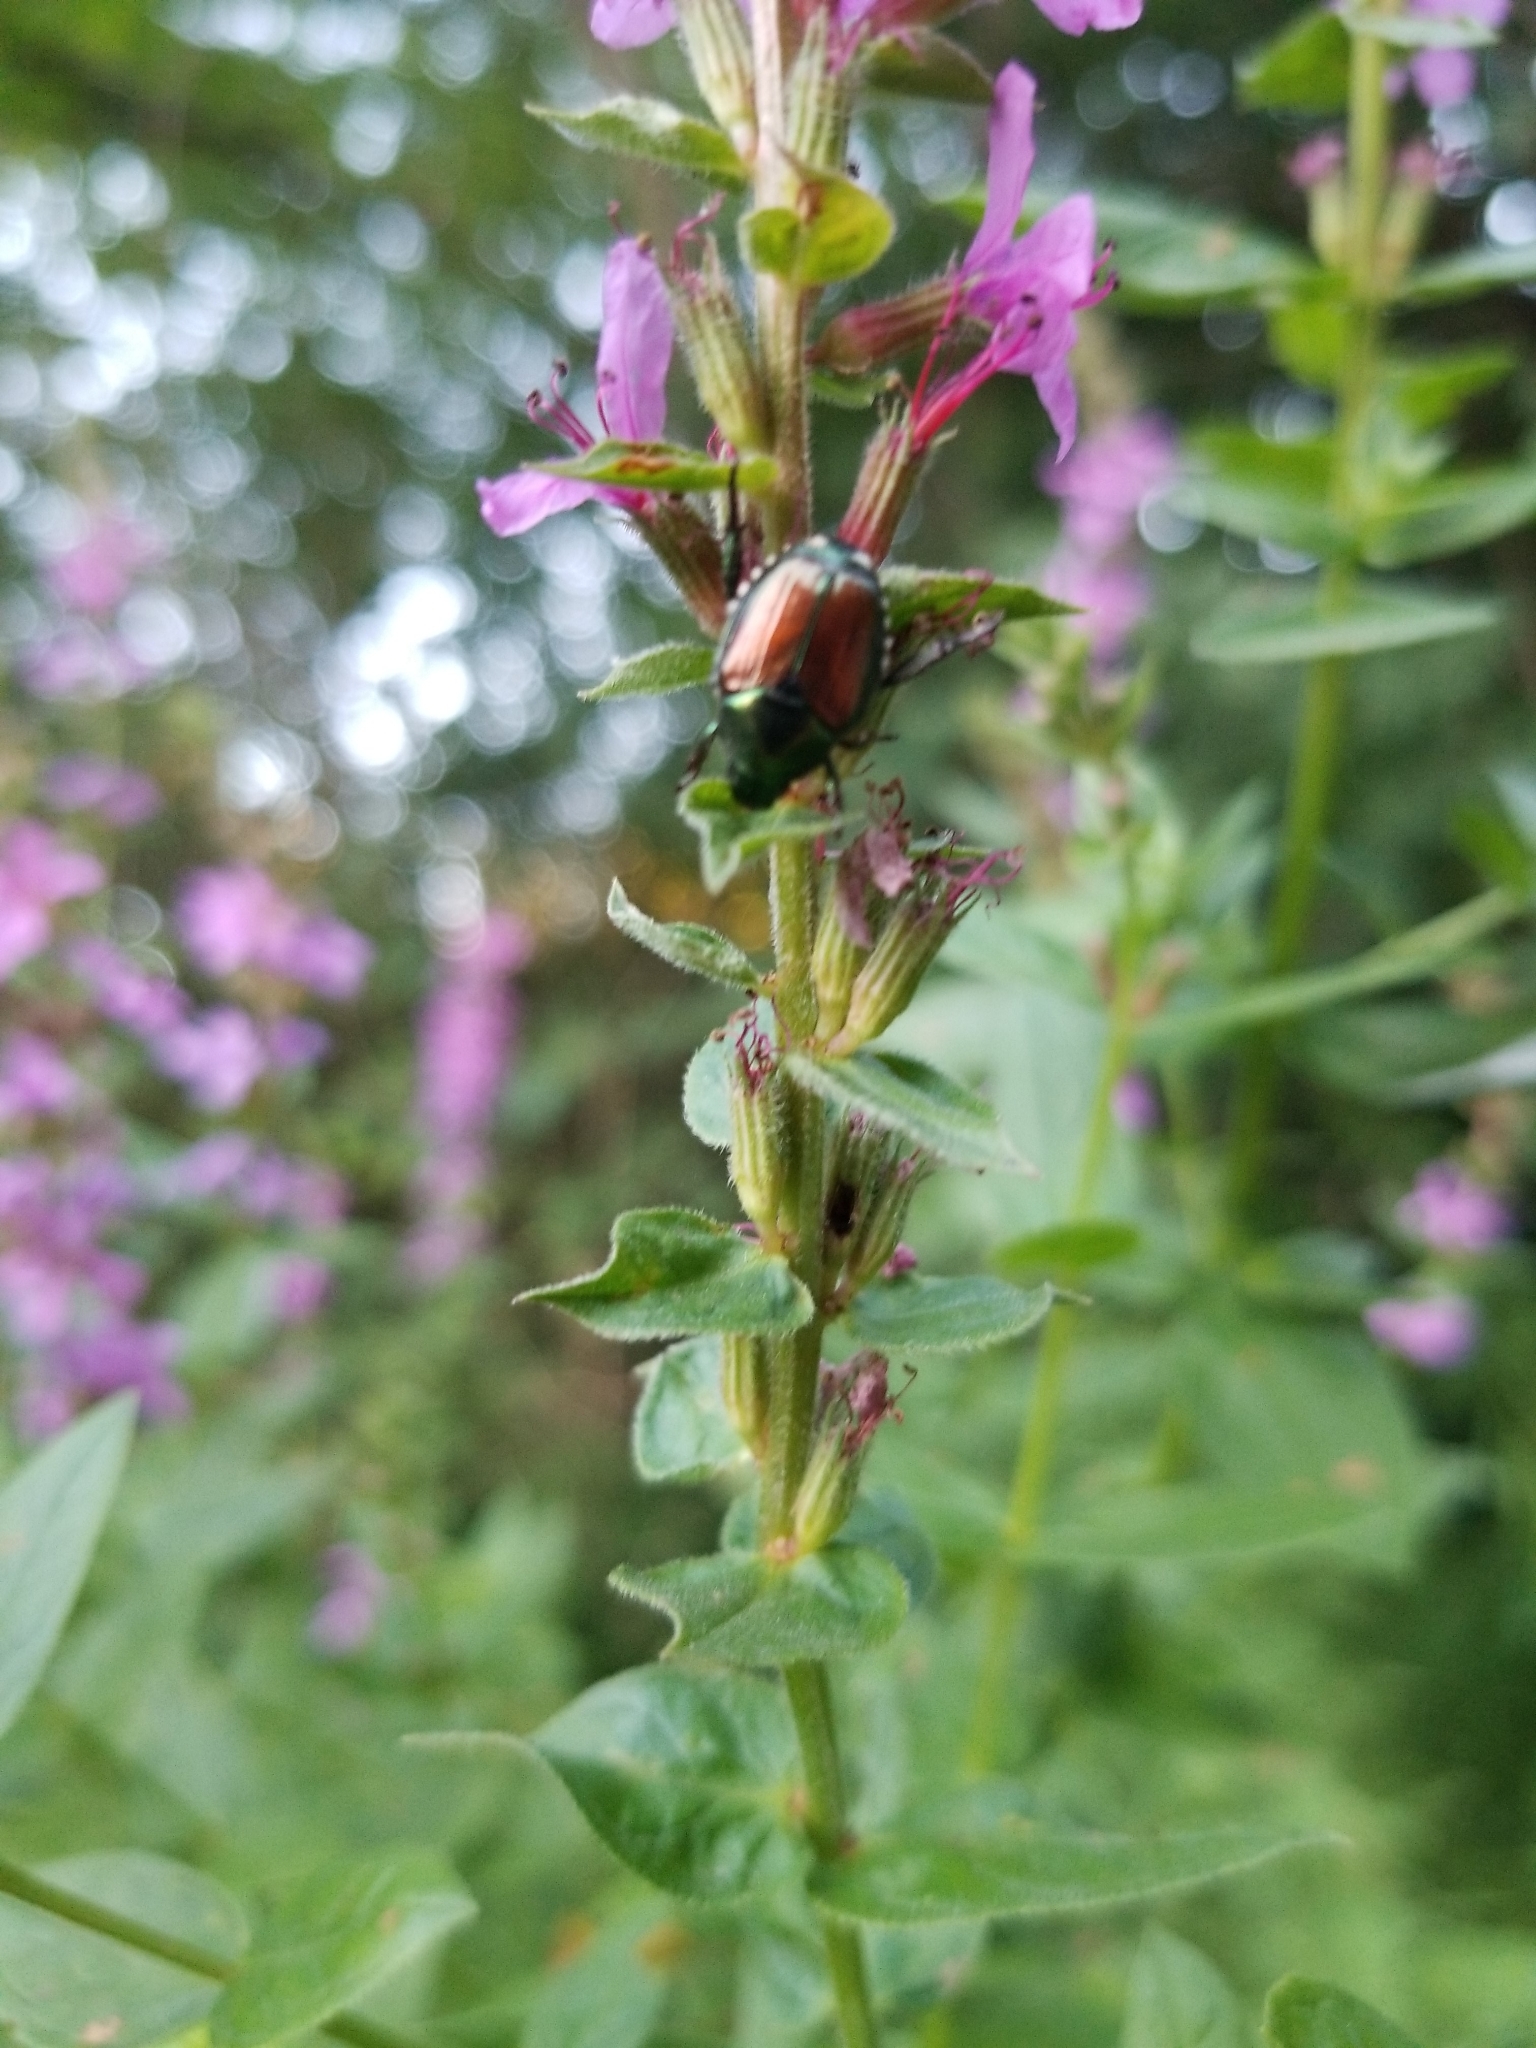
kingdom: Animalia
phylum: Arthropoda
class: Insecta
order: Coleoptera
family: Scarabaeidae
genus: Popillia
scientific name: Popillia japonica
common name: Japanese beetle
